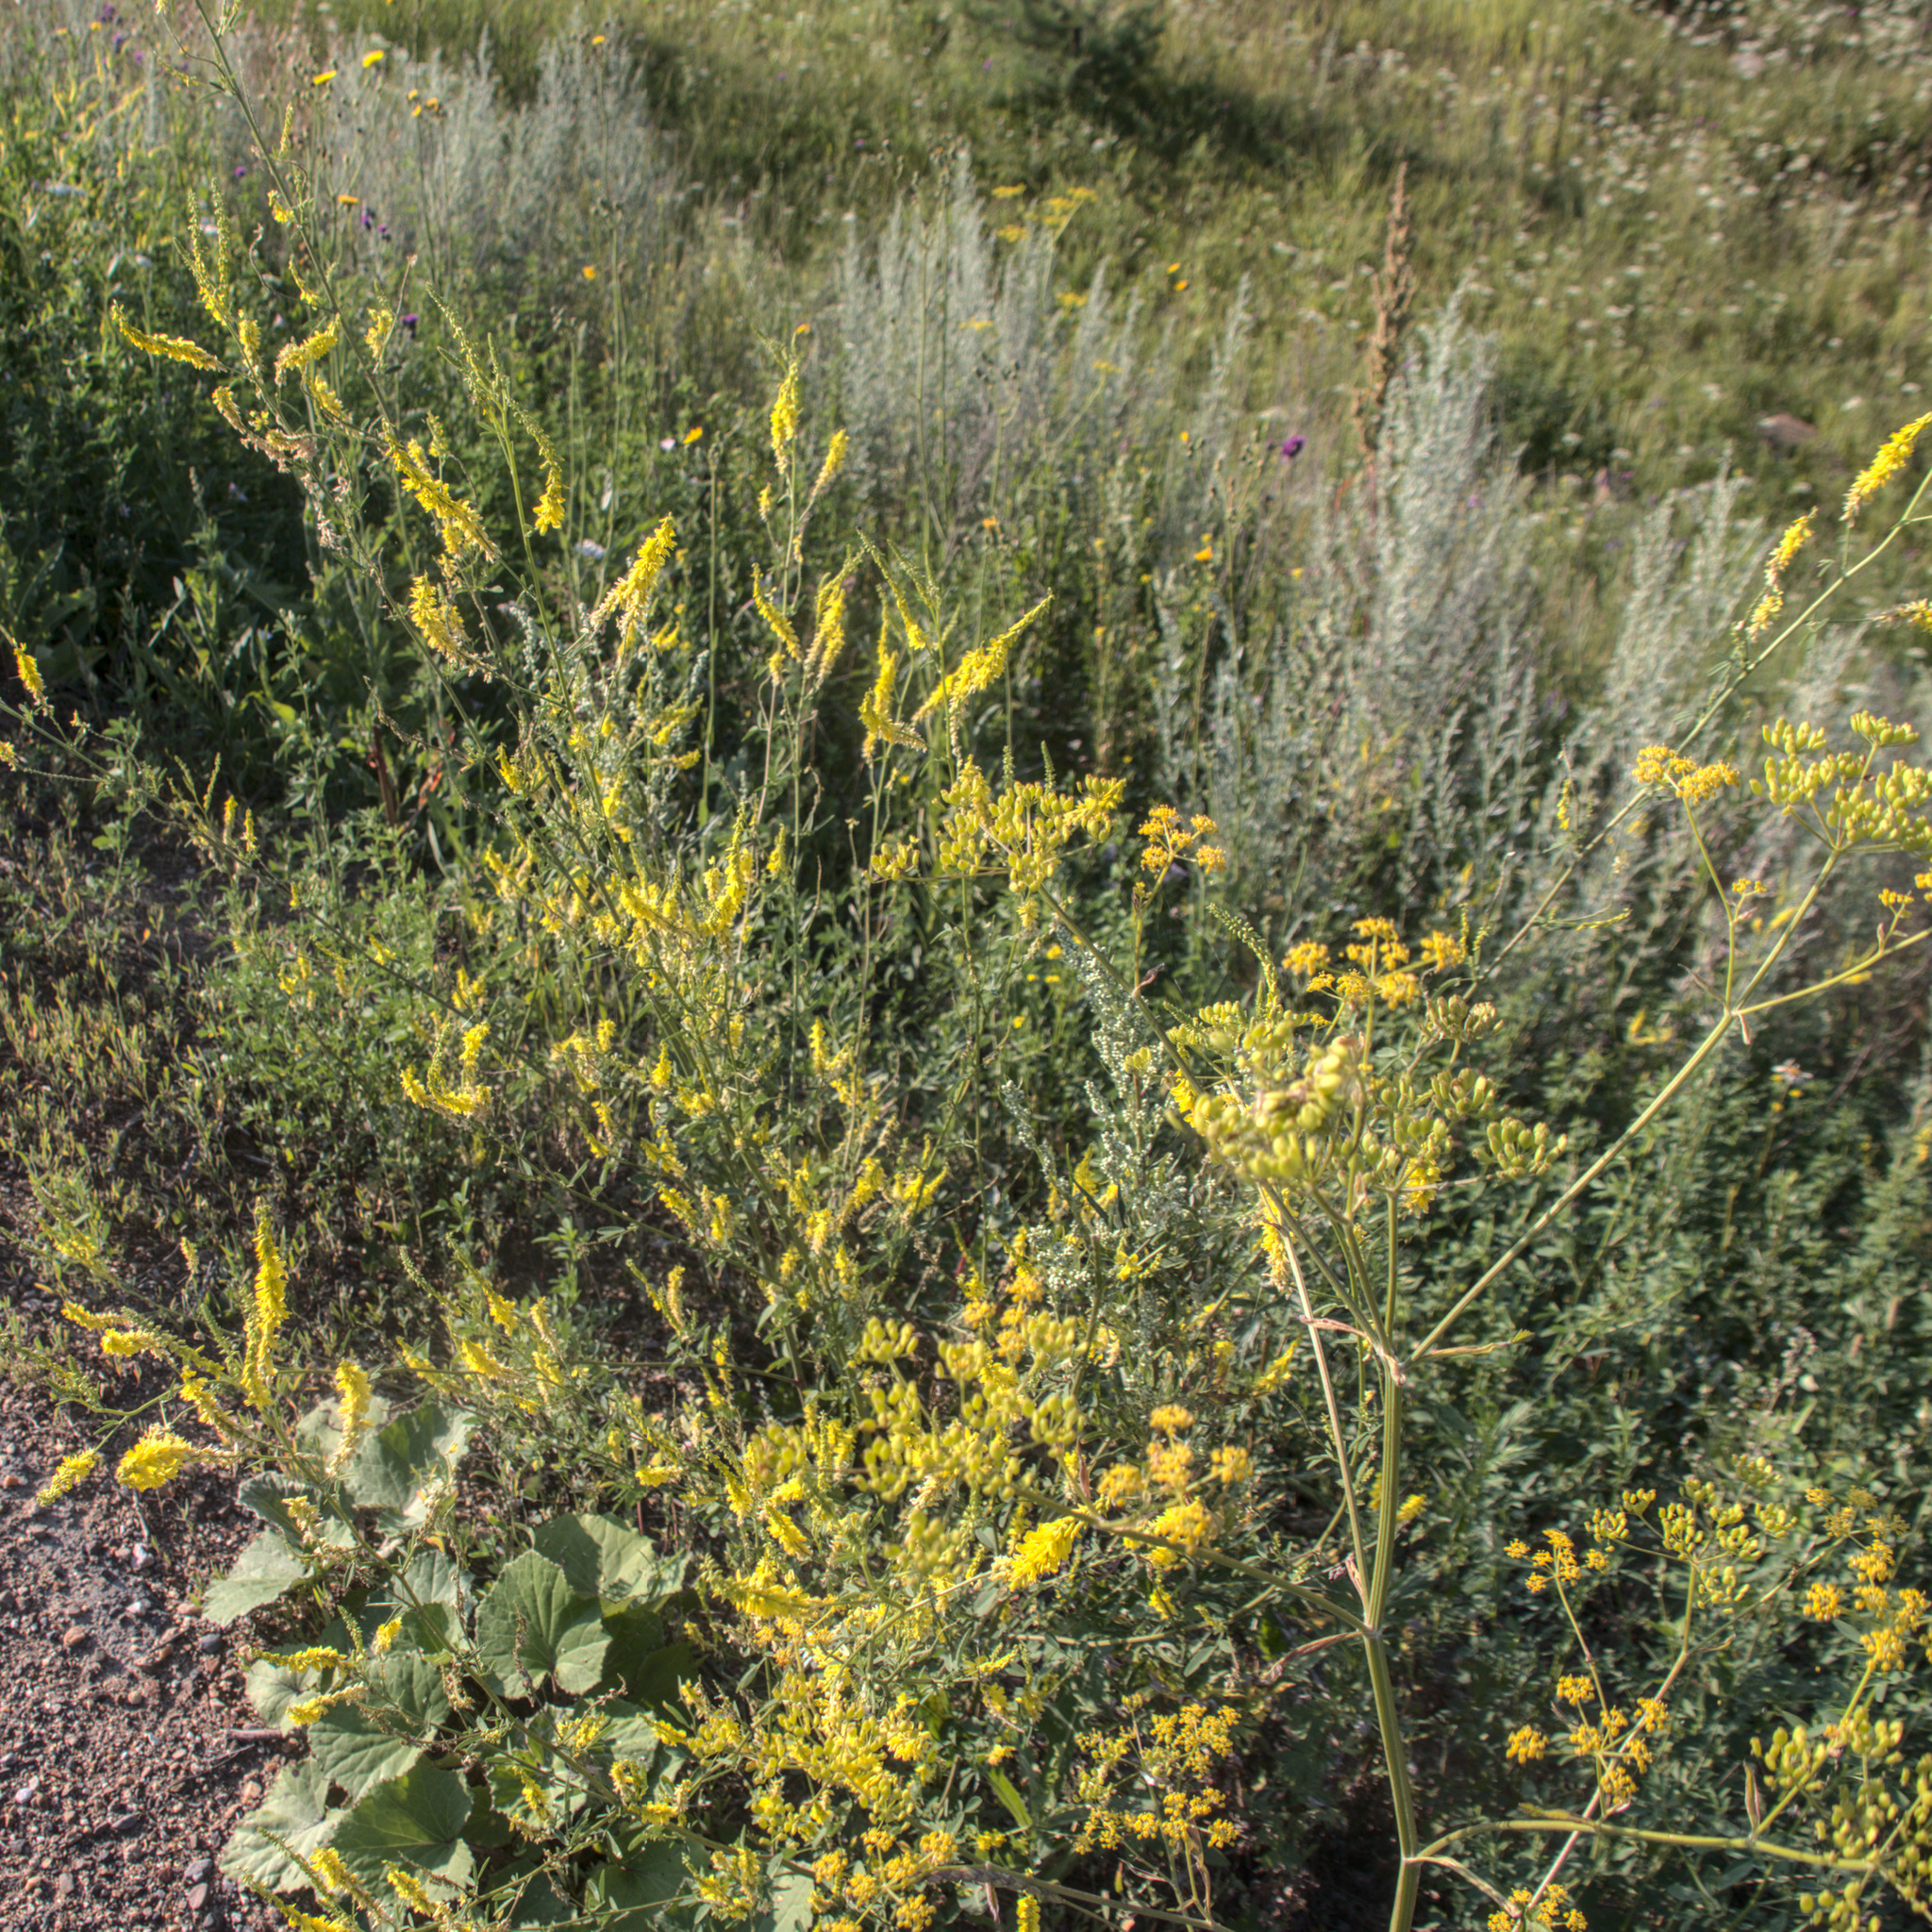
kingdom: Plantae
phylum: Tracheophyta
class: Magnoliopsida
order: Fabales
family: Fabaceae
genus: Melilotus
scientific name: Melilotus officinalis
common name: Sweetclover
